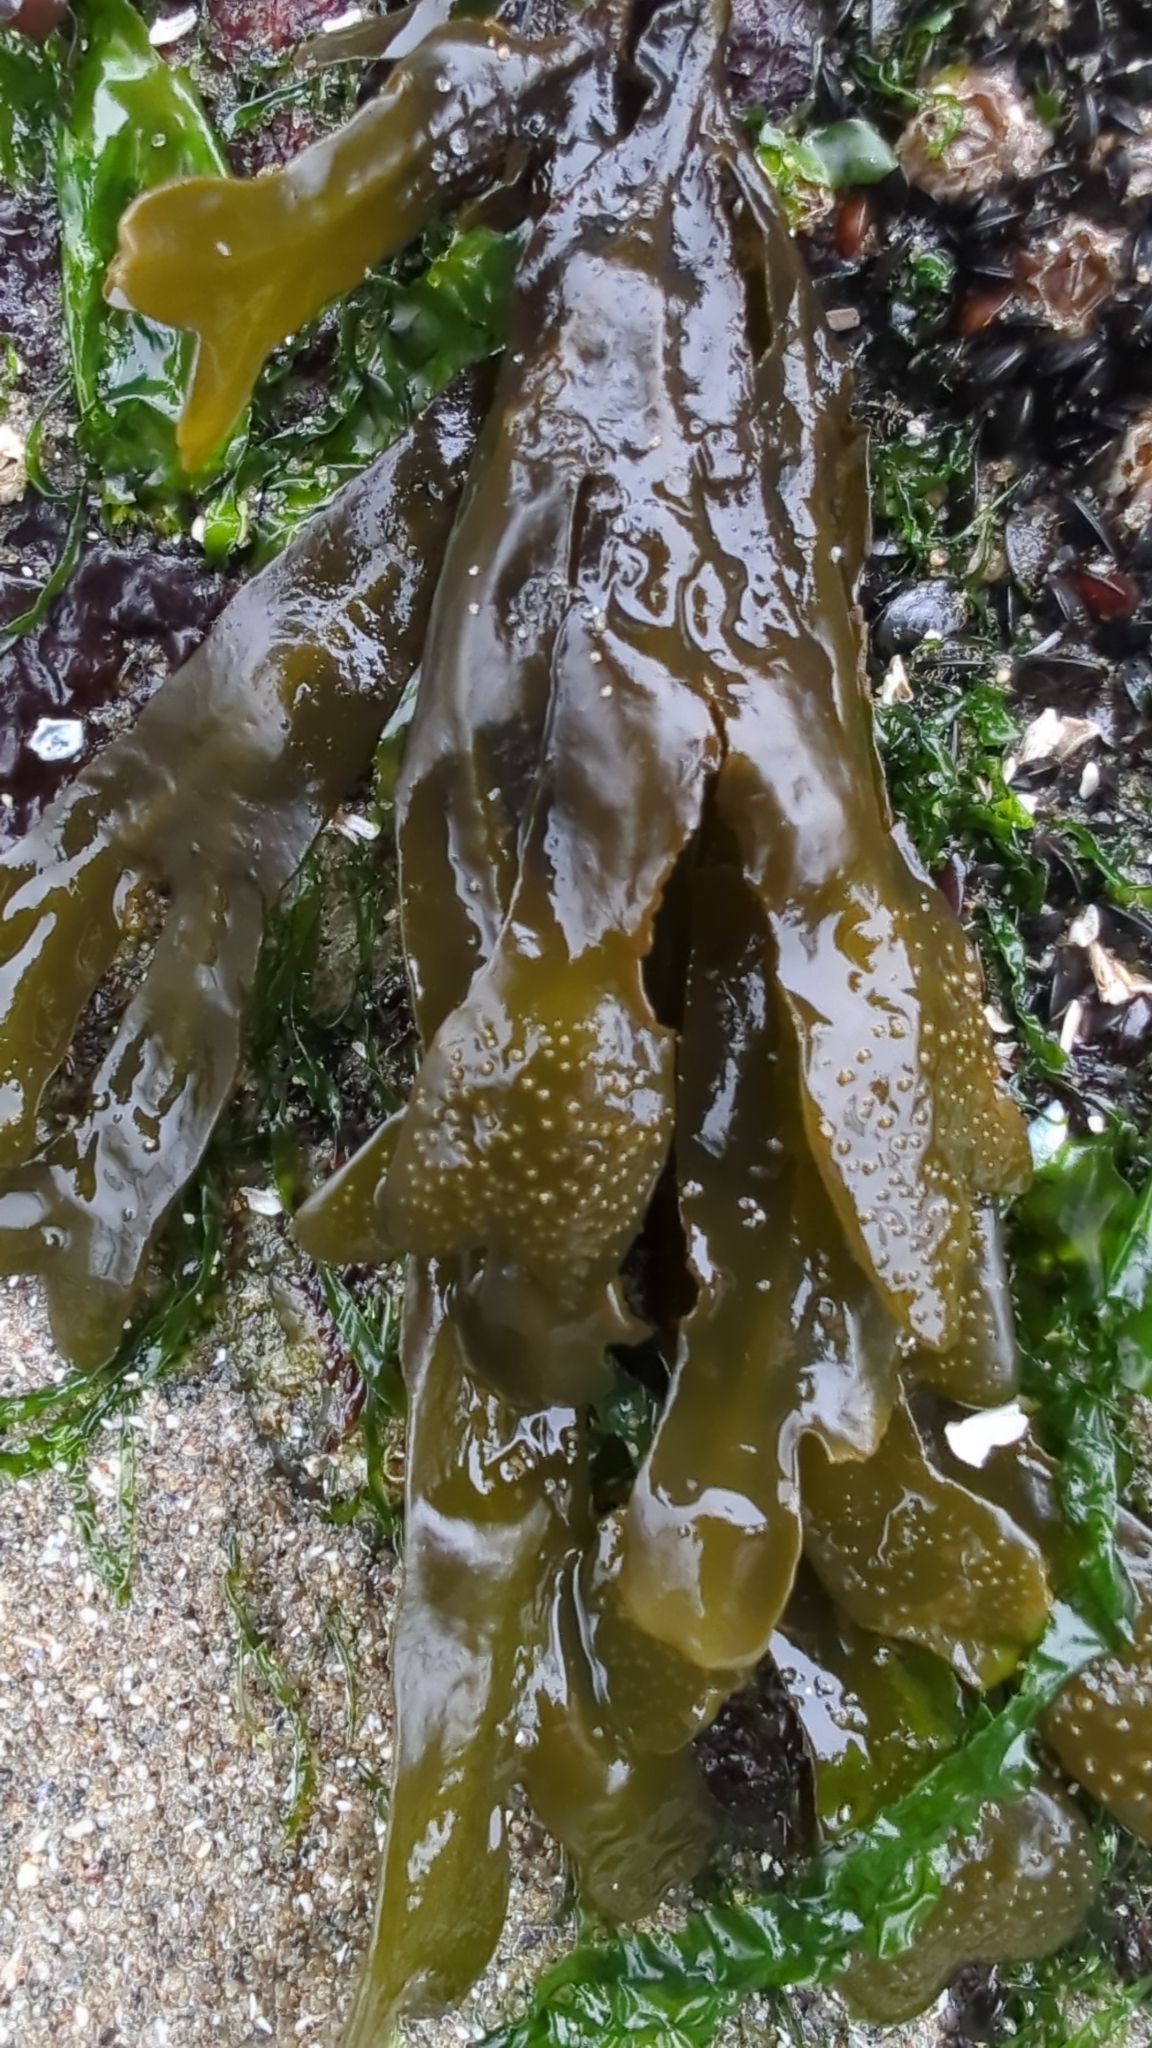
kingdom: Chromista
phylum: Ochrophyta
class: Phaeophyceae
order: Fucales
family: Fucaceae
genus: Fucus
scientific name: Fucus distichus
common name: Rockweed
